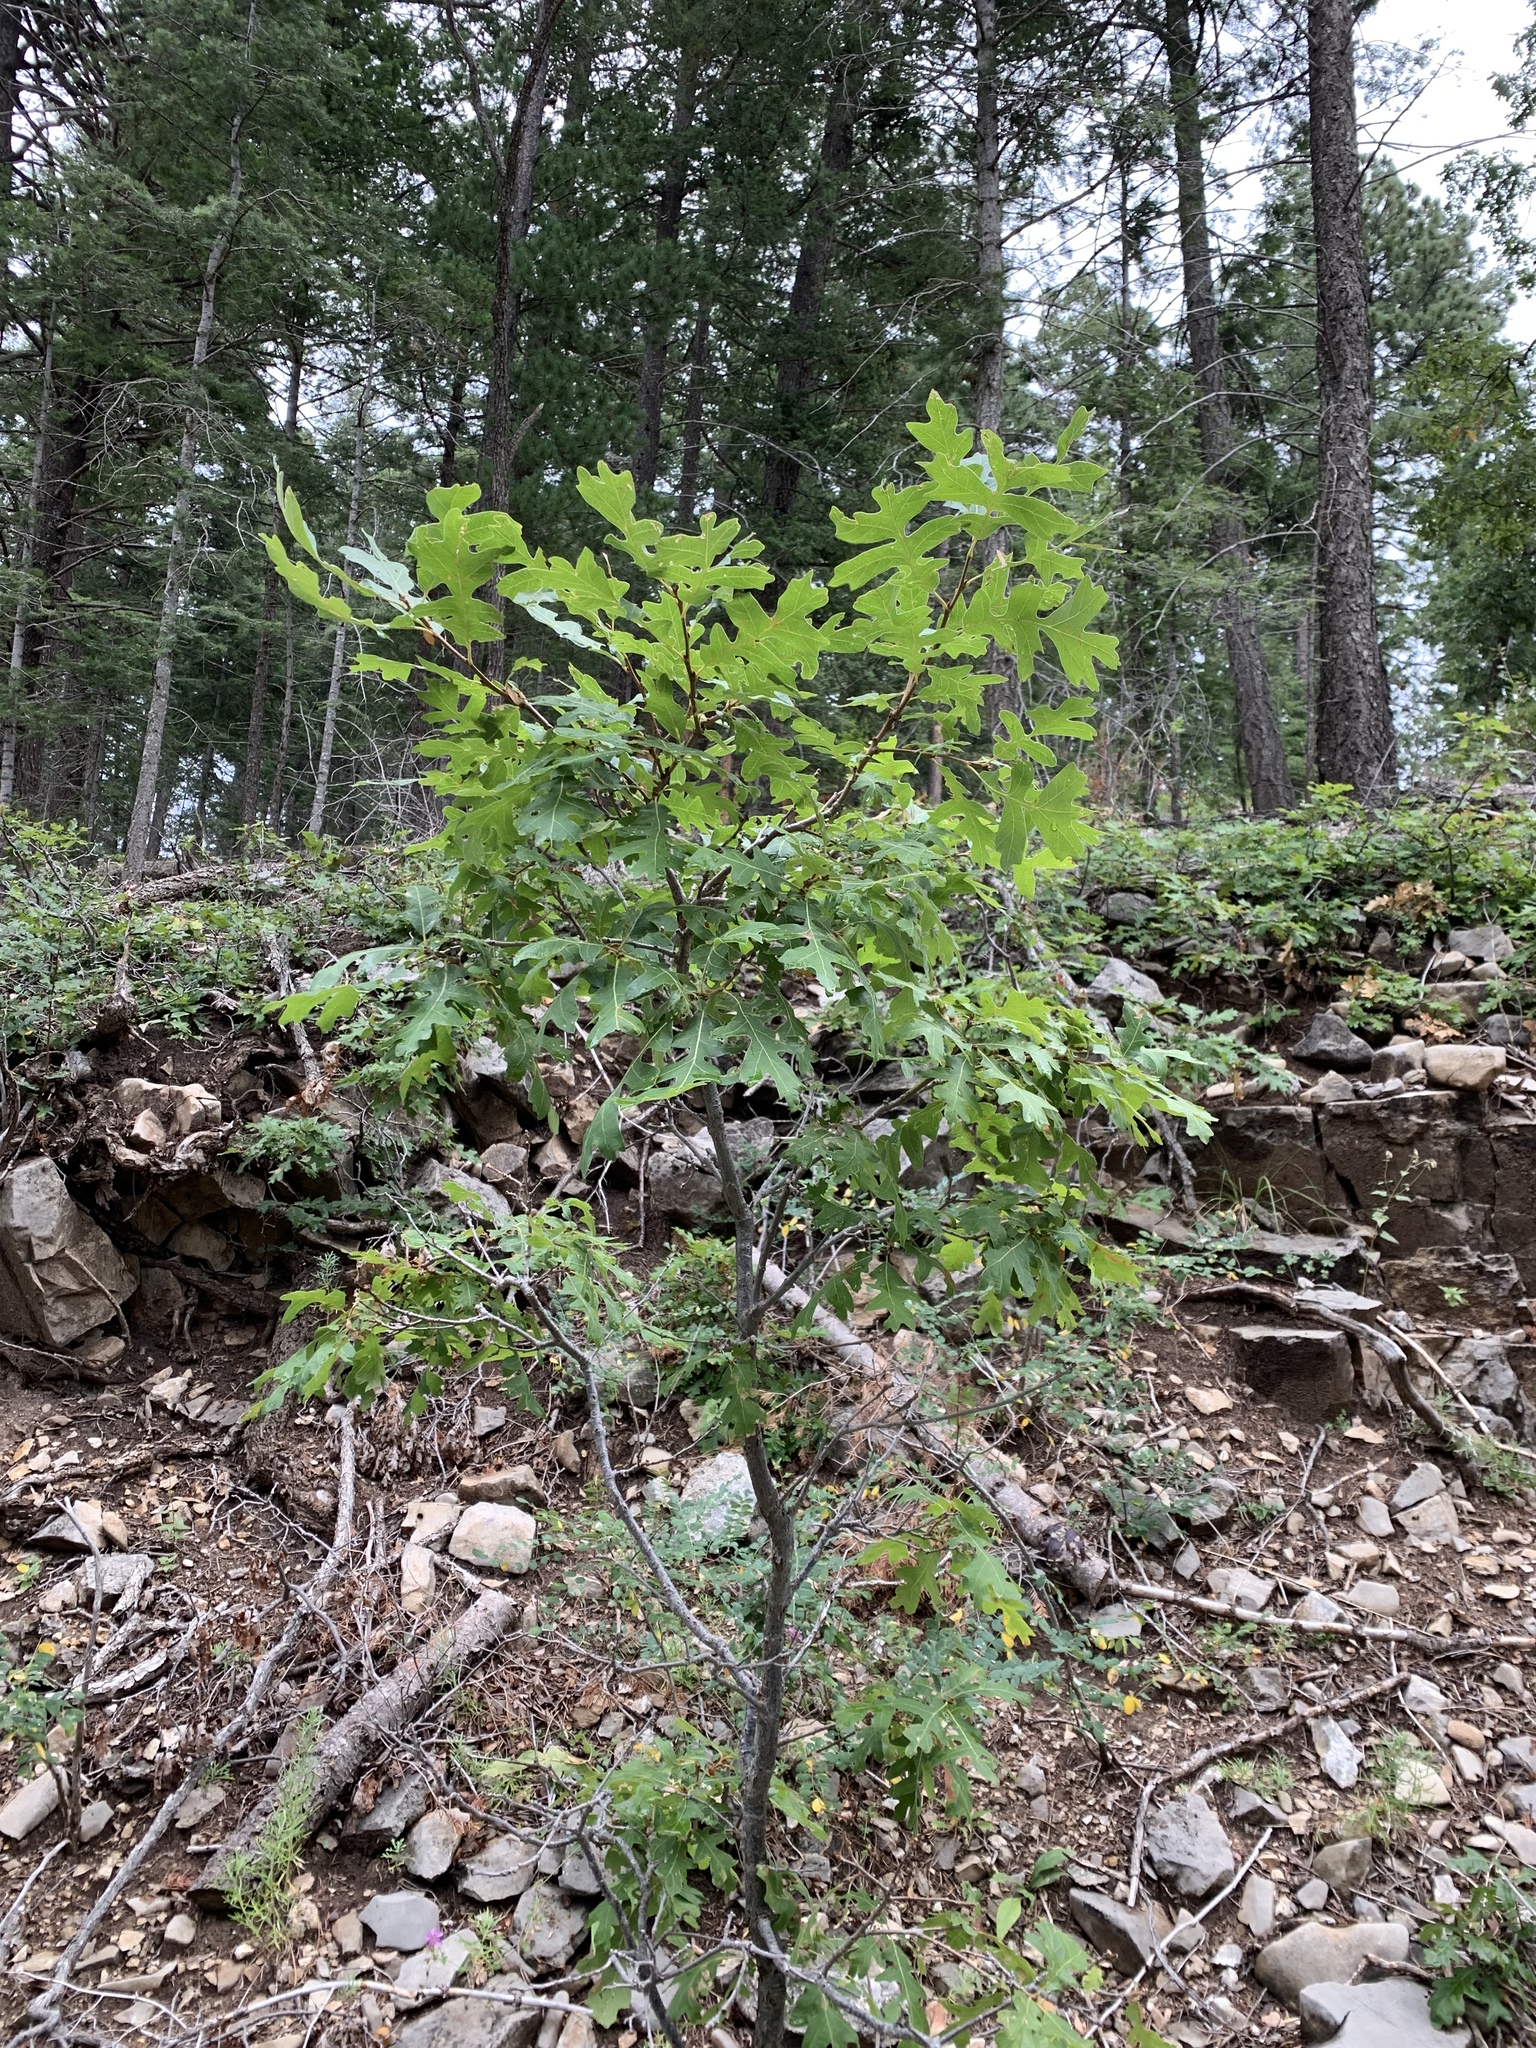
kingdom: Plantae
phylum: Tracheophyta
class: Magnoliopsida
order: Fagales
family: Fagaceae
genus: Quercus
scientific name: Quercus gambelii
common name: Gambel oak
